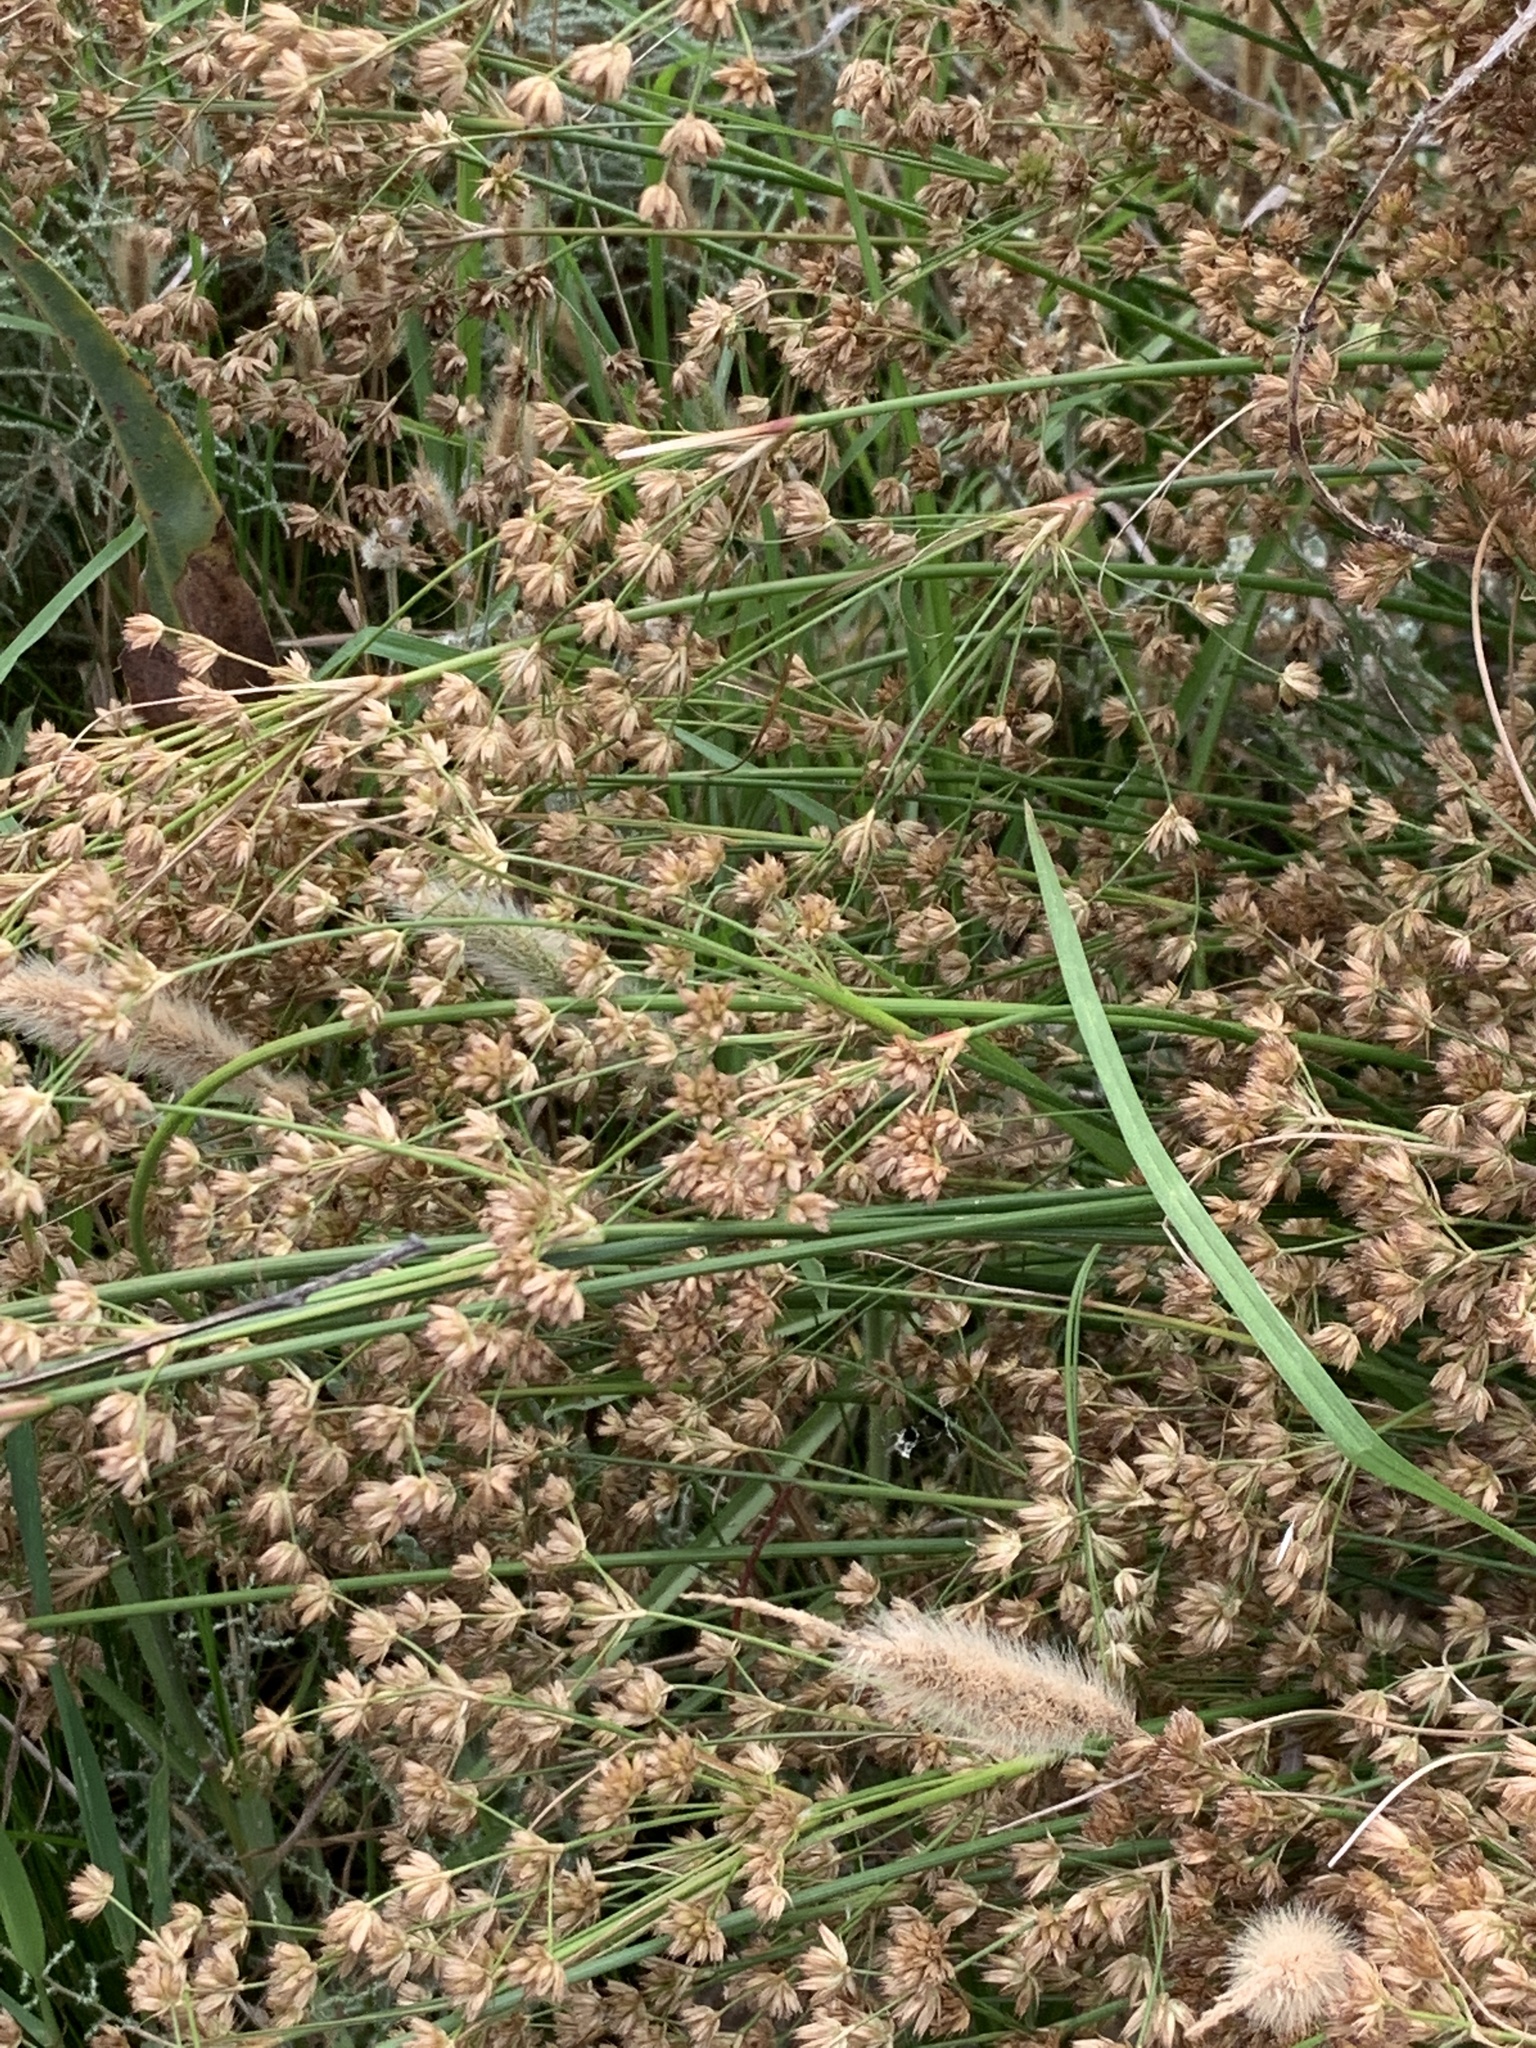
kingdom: Plantae
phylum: Tracheophyta
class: Liliopsida
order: Poales
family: Juncaceae
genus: Juncus
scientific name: Juncus capensis
